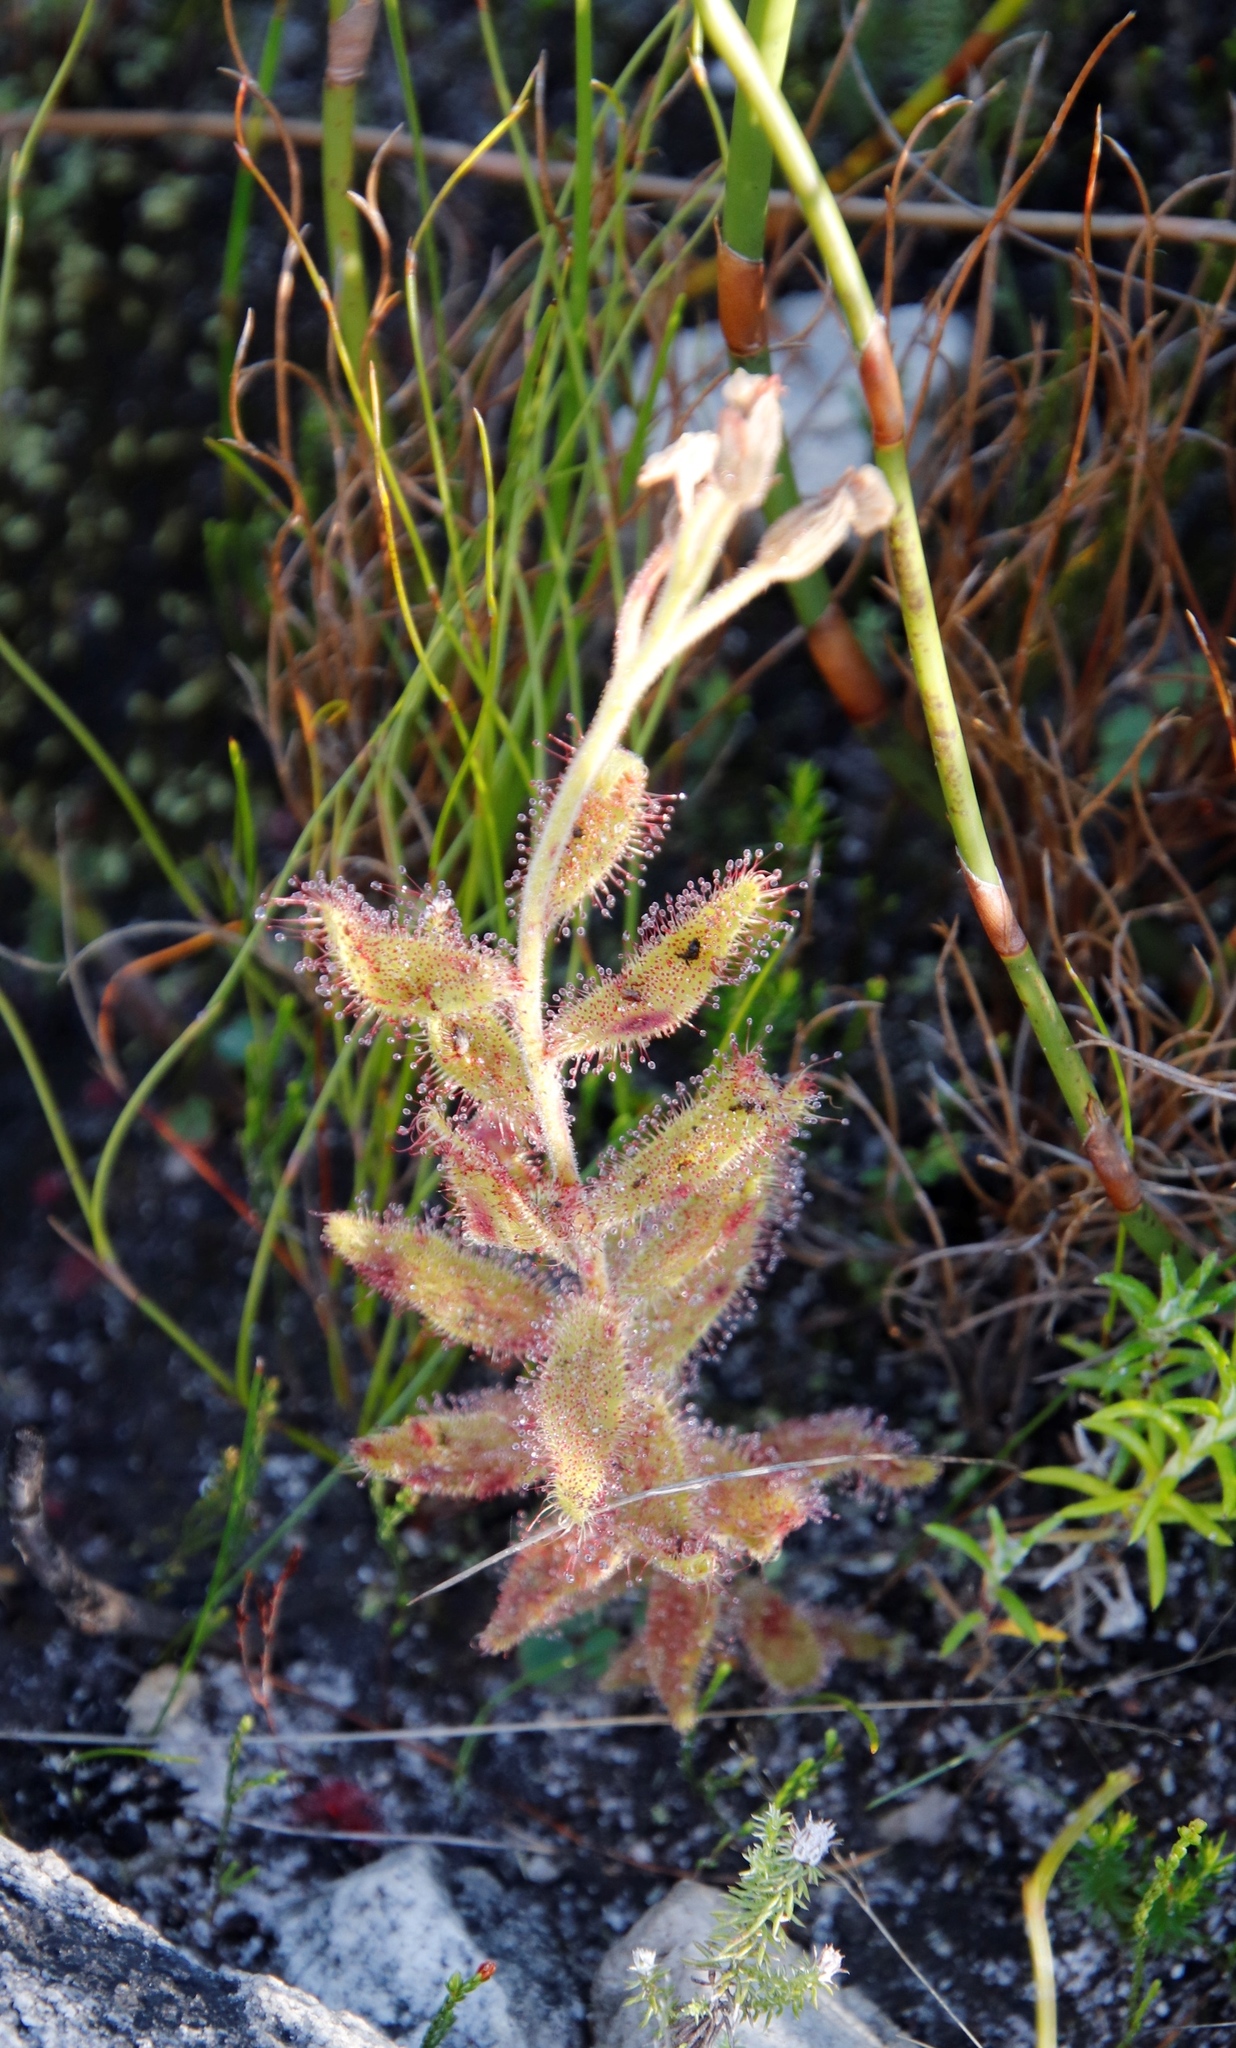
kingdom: Plantae
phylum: Tracheophyta
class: Magnoliopsida
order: Caryophyllales
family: Droseraceae
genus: Drosera
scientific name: Drosera cistiflora
